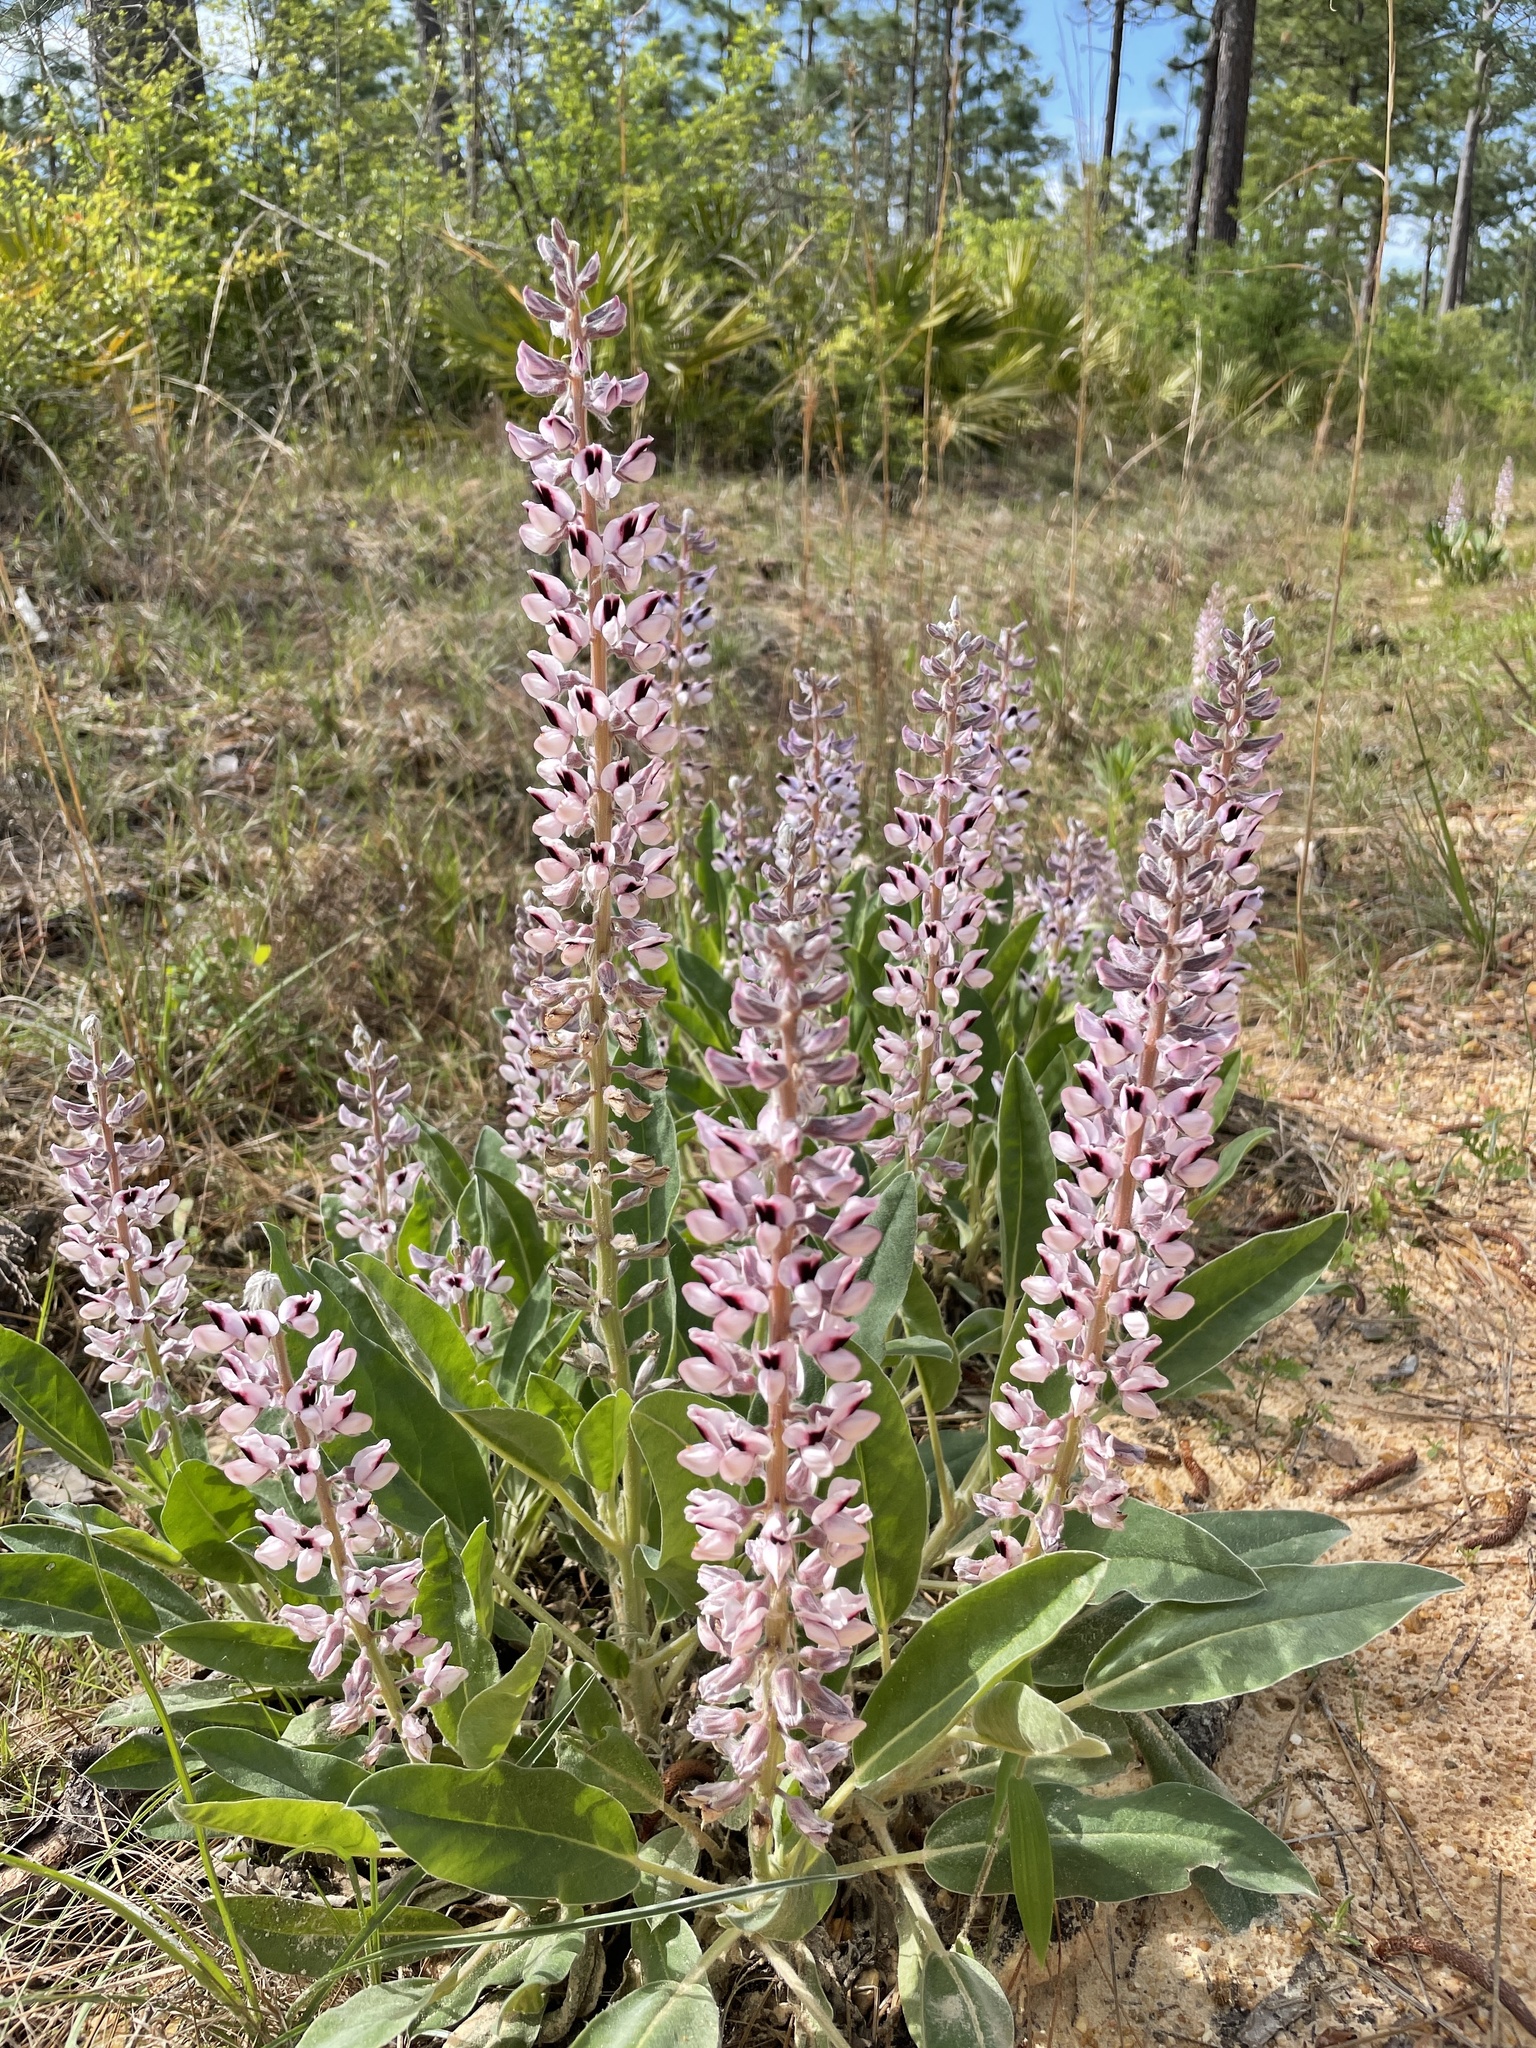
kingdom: Plantae
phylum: Tracheophyta
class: Magnoliopsida
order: Fabales
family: Fabaceae
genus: Lupinus
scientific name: Lupinus villosus
